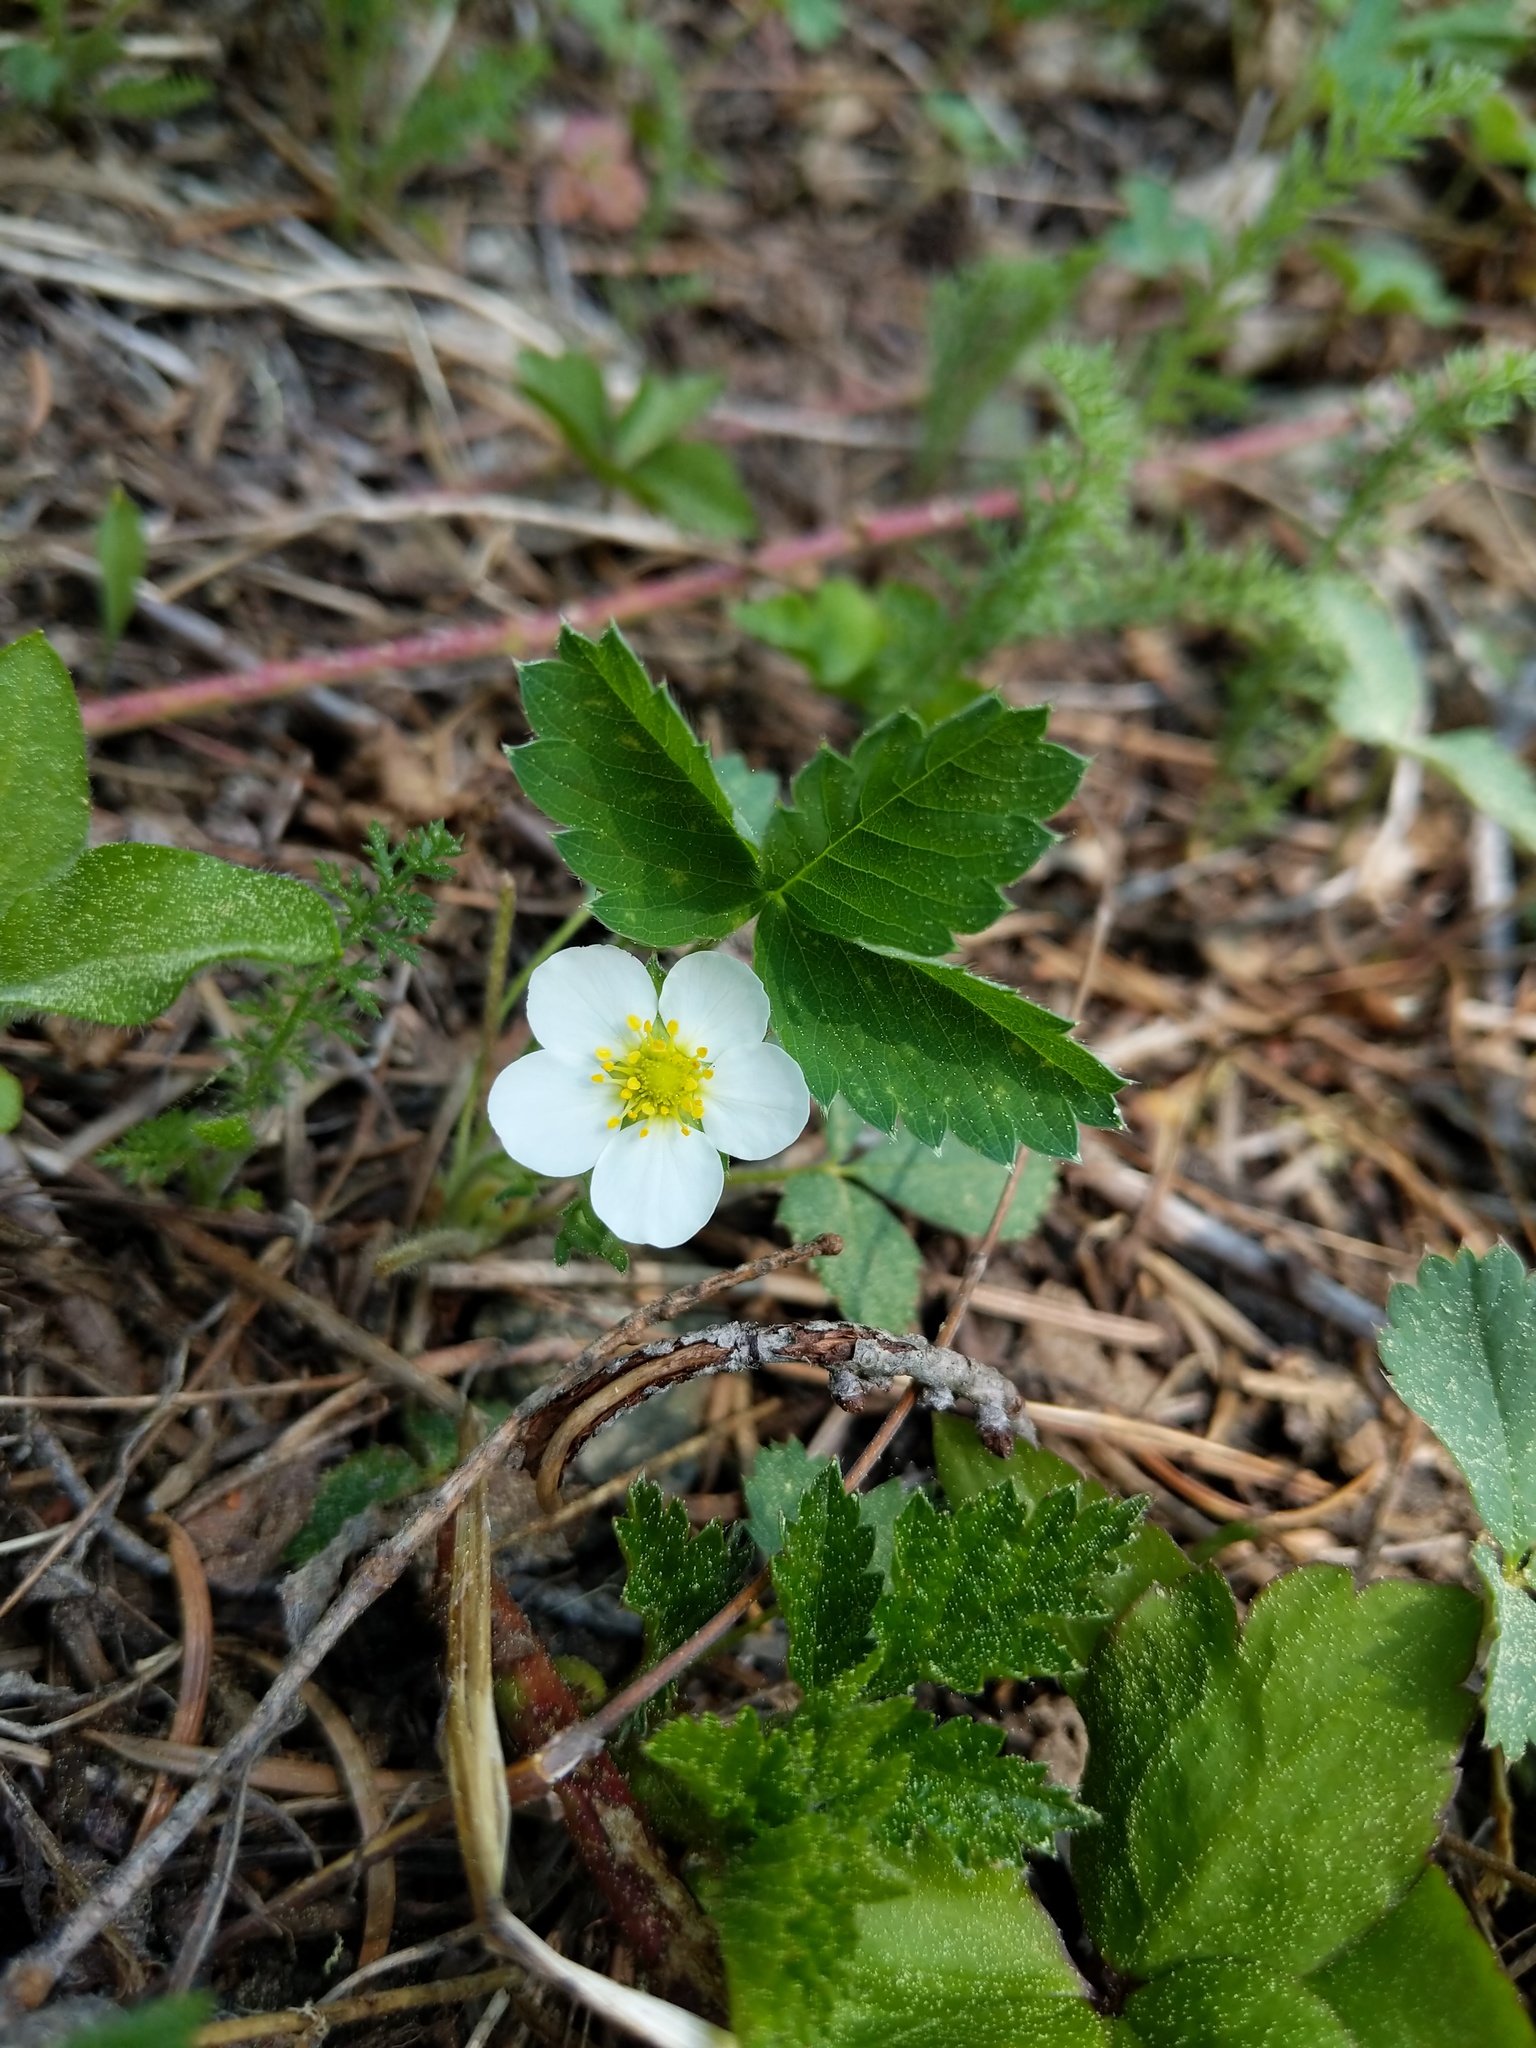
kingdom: Plantae
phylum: Tracheophyta
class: Magnoliopsida
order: Rosales
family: Rosaceae
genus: Fragaria
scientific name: Fragaria virginiana
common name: Thickleaved wild strawberry
